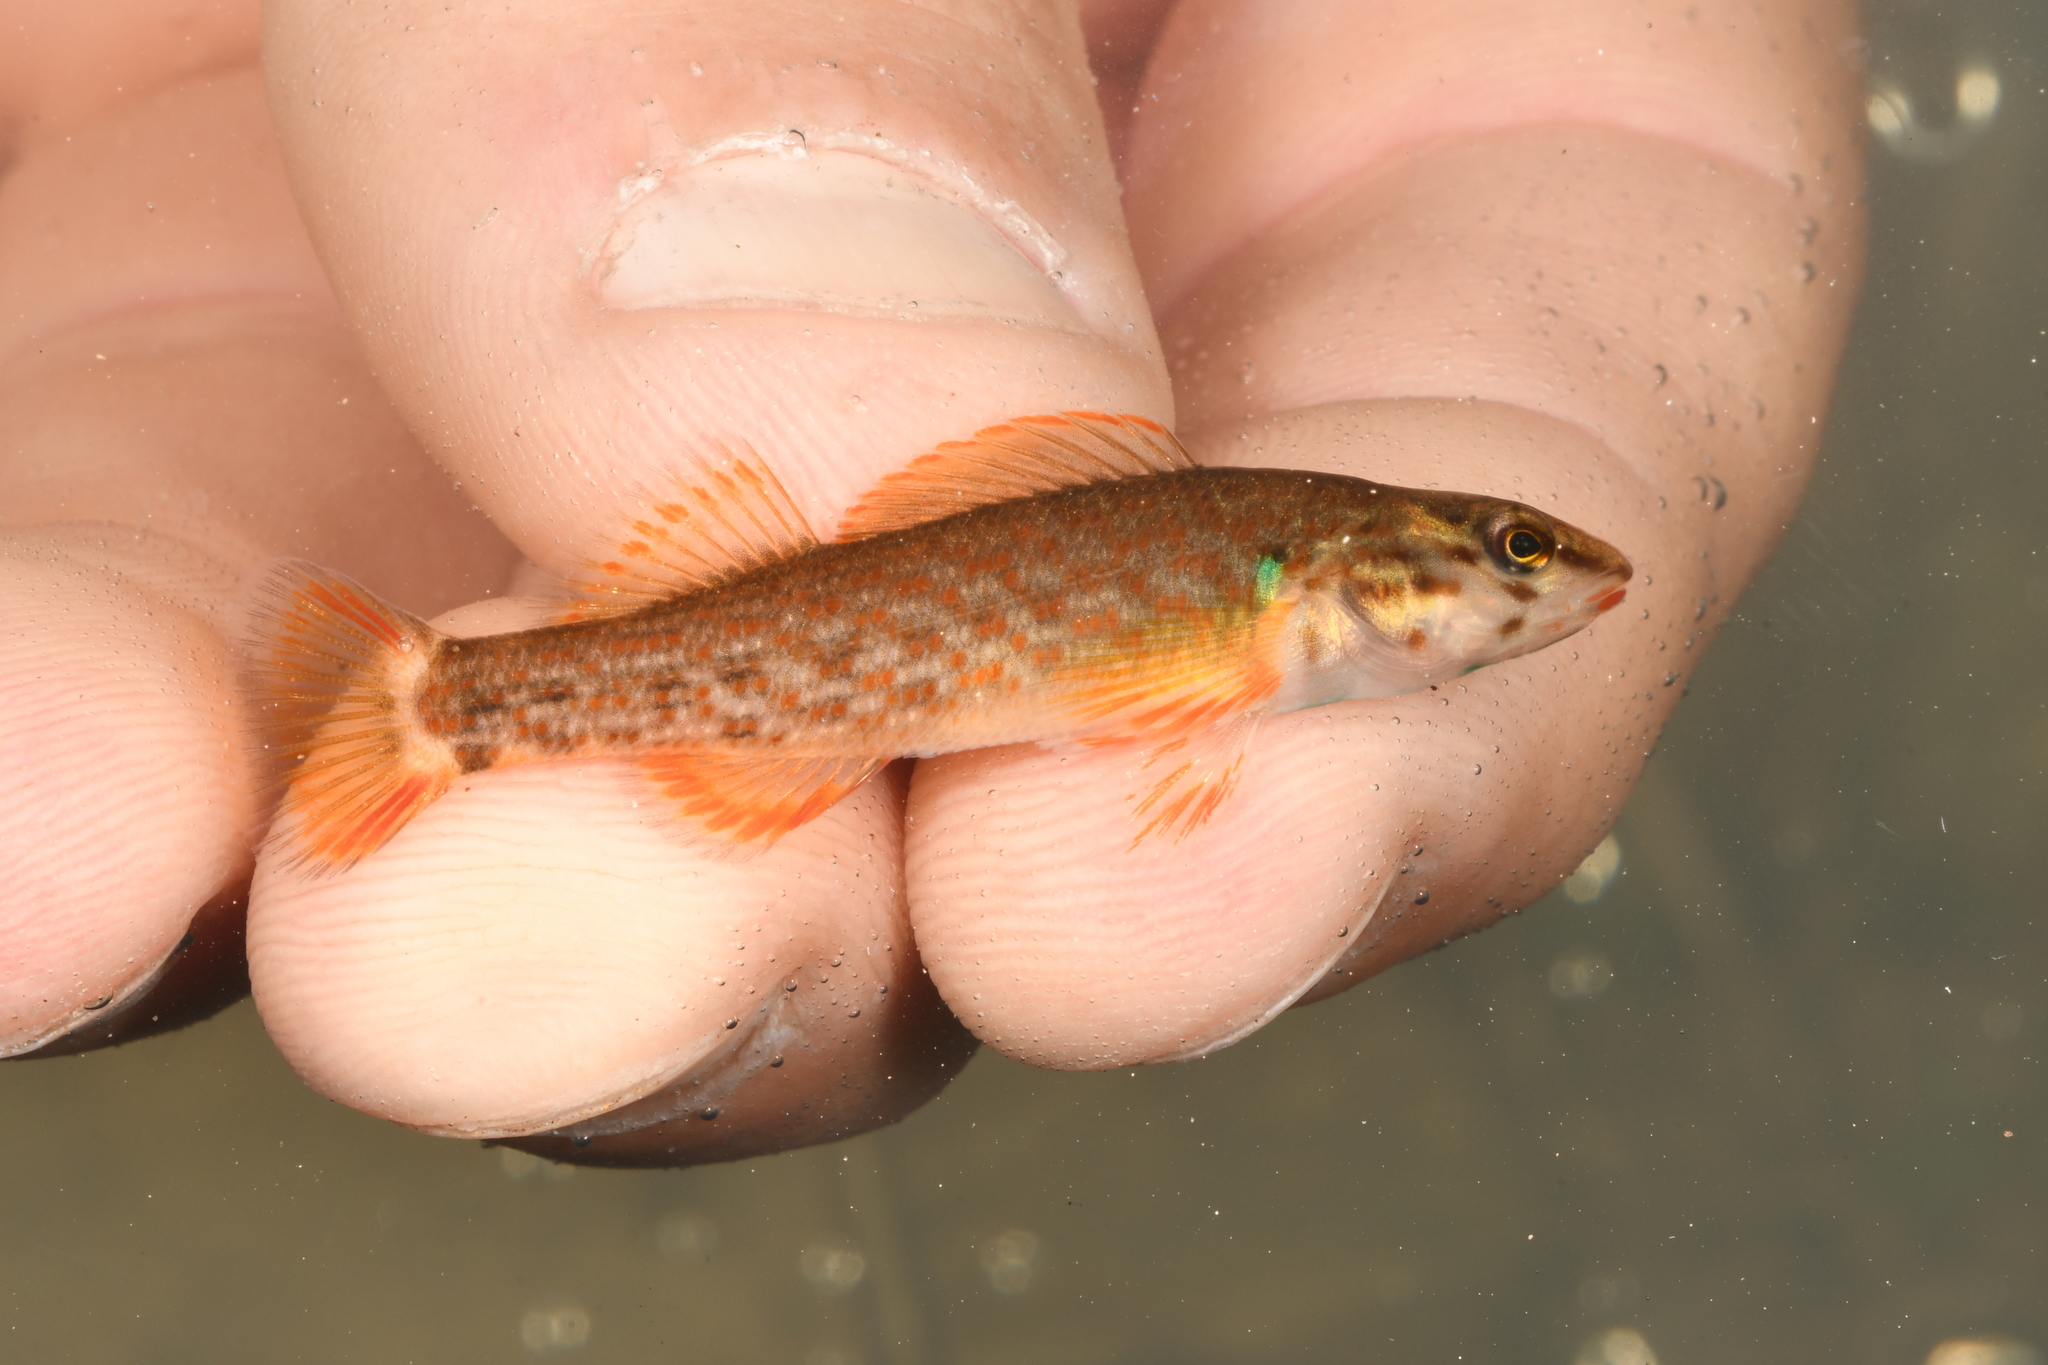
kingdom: Animalia
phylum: Chordata
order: Perciformes
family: Percidae
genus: Etheostoma
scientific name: Etheostoma rufilineatum
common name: Redline darter
